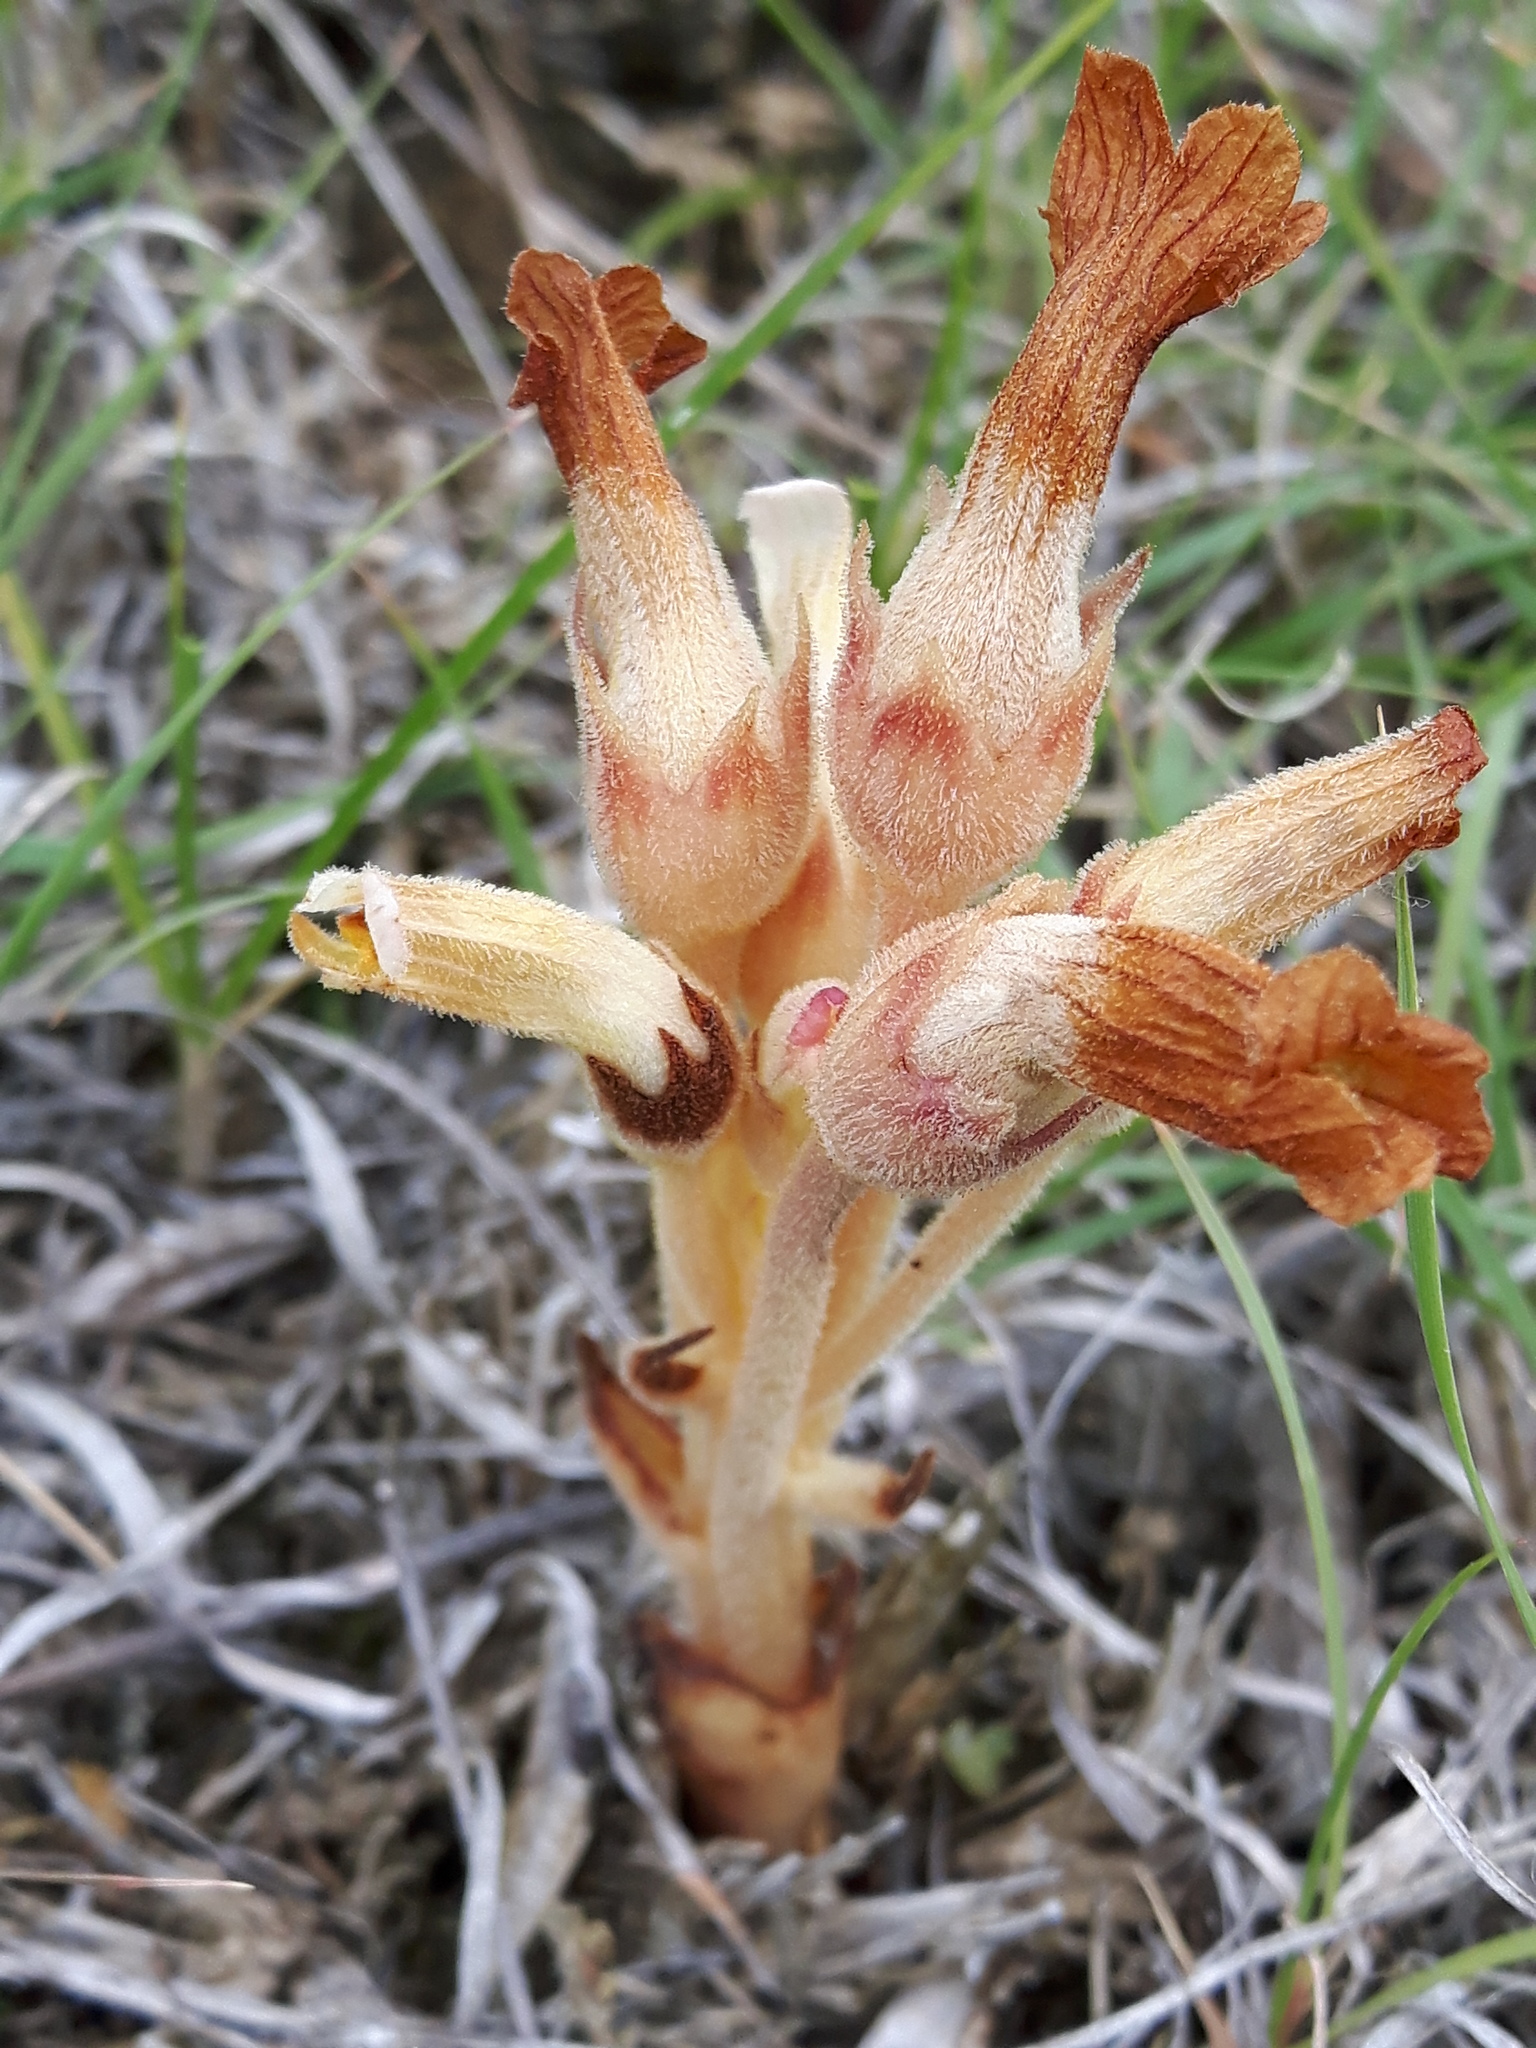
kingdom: Plantae
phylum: Tracheophyta
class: Magnoliopsida
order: Lamiales
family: Orobanchaceae
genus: Aphyllon
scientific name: Aphyllon fasciculatum
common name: Clustered broomrape
